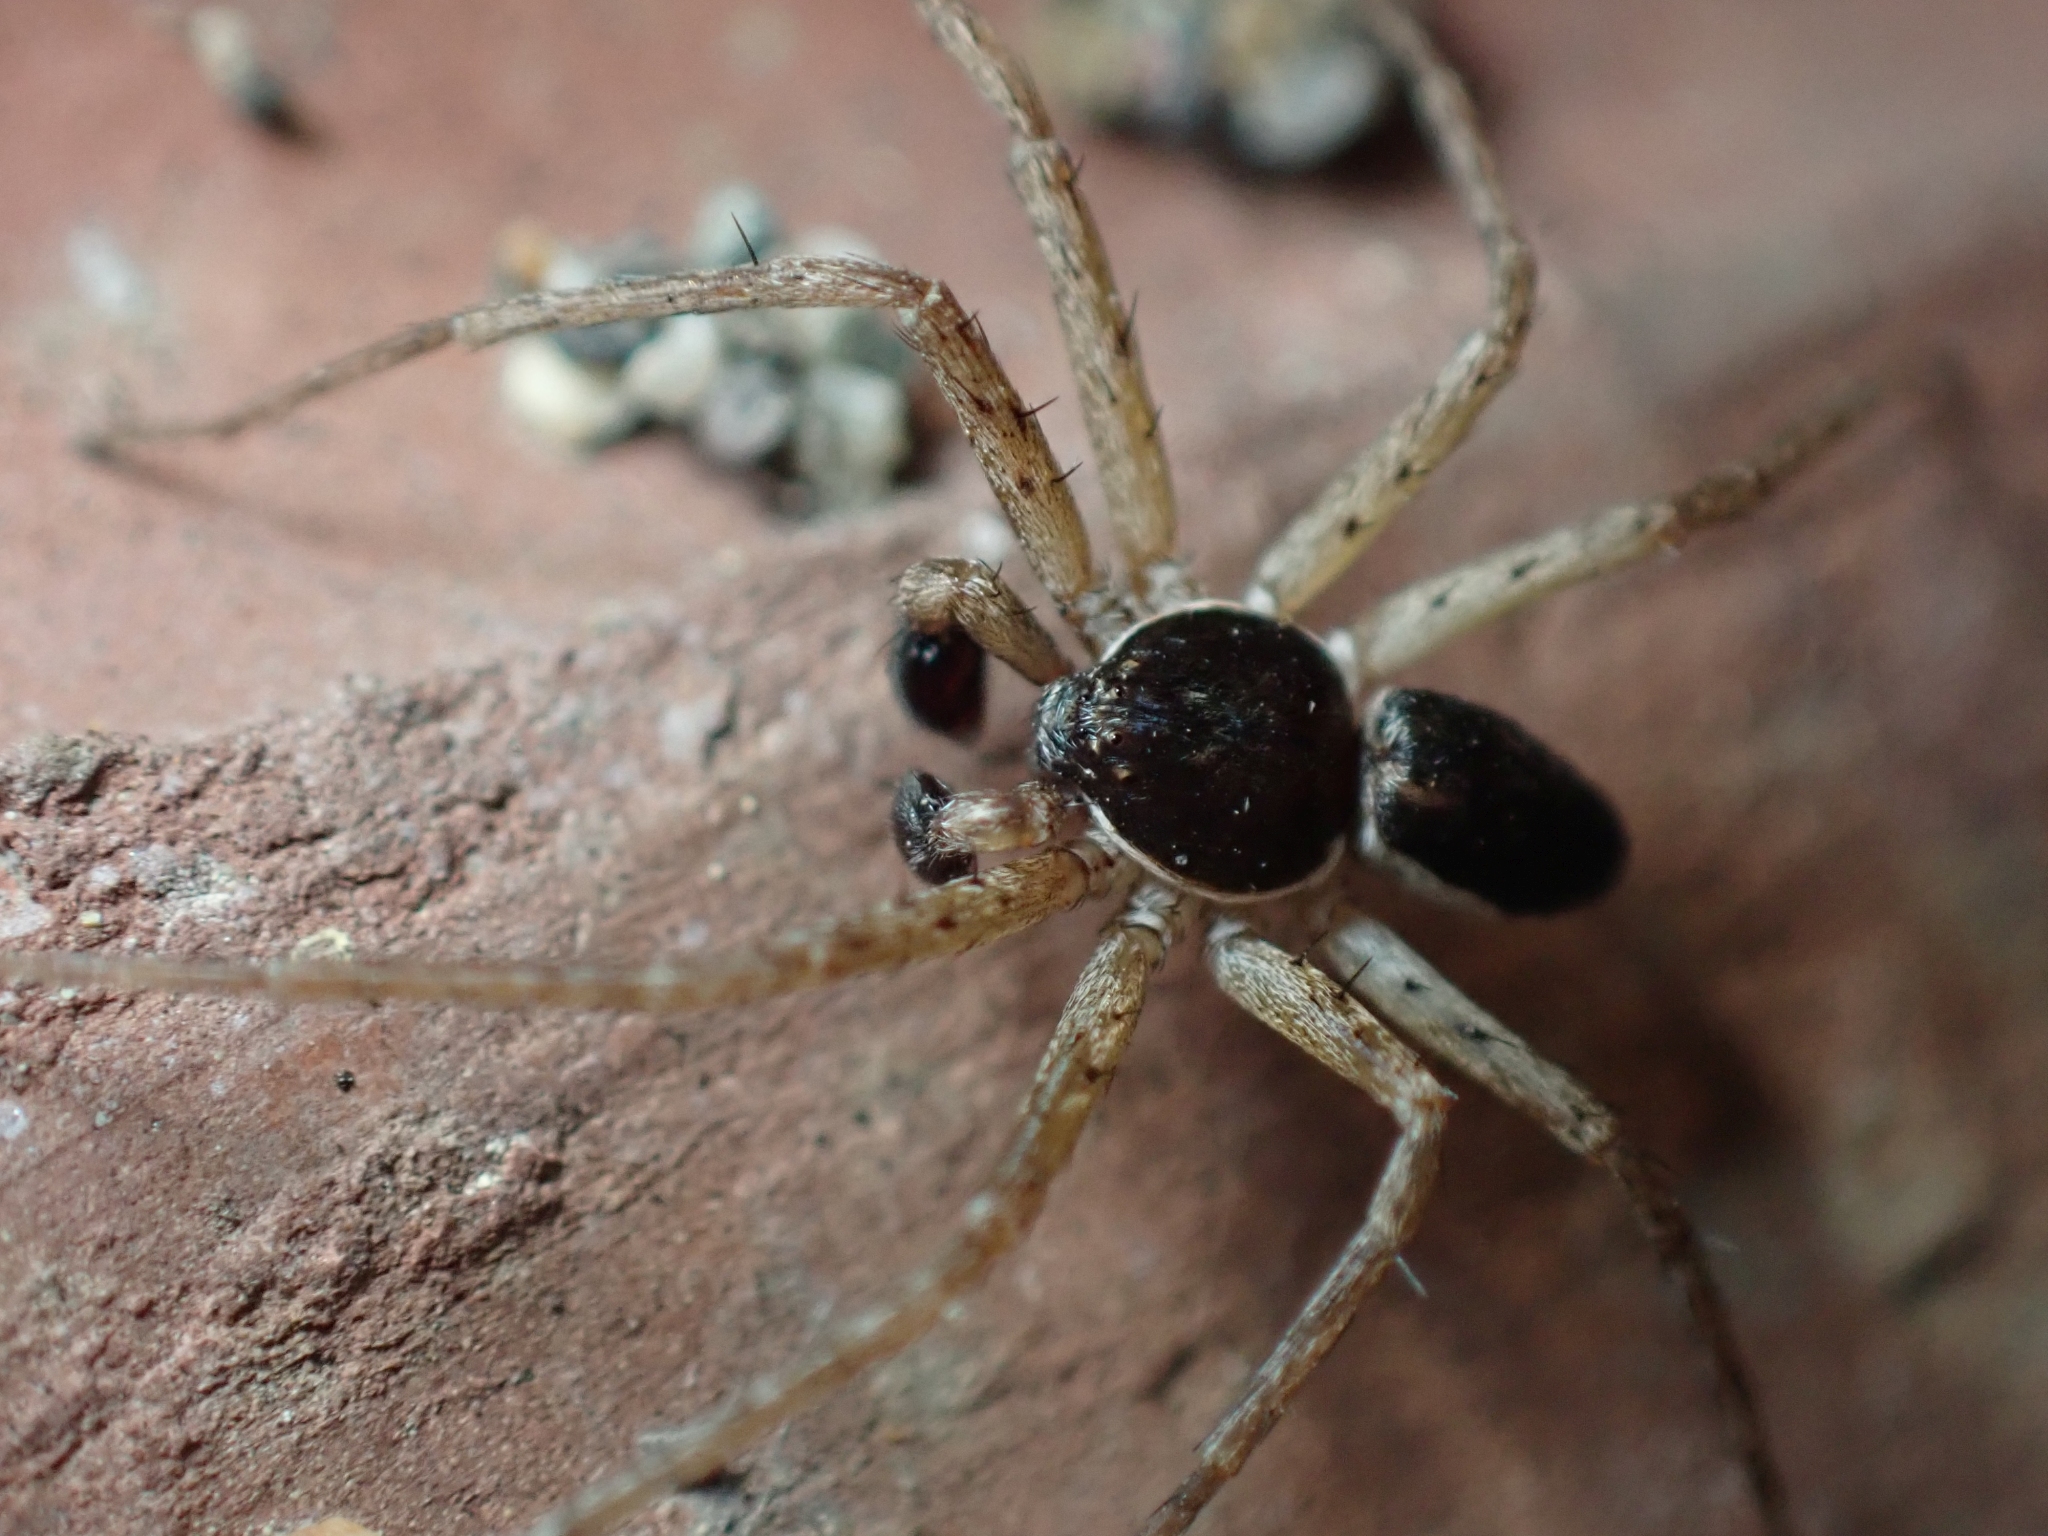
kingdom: Animalia
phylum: Arthropoda
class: Arachnida
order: Araneae
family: Philodromidae
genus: Philodromus
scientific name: Philodromus dispar
